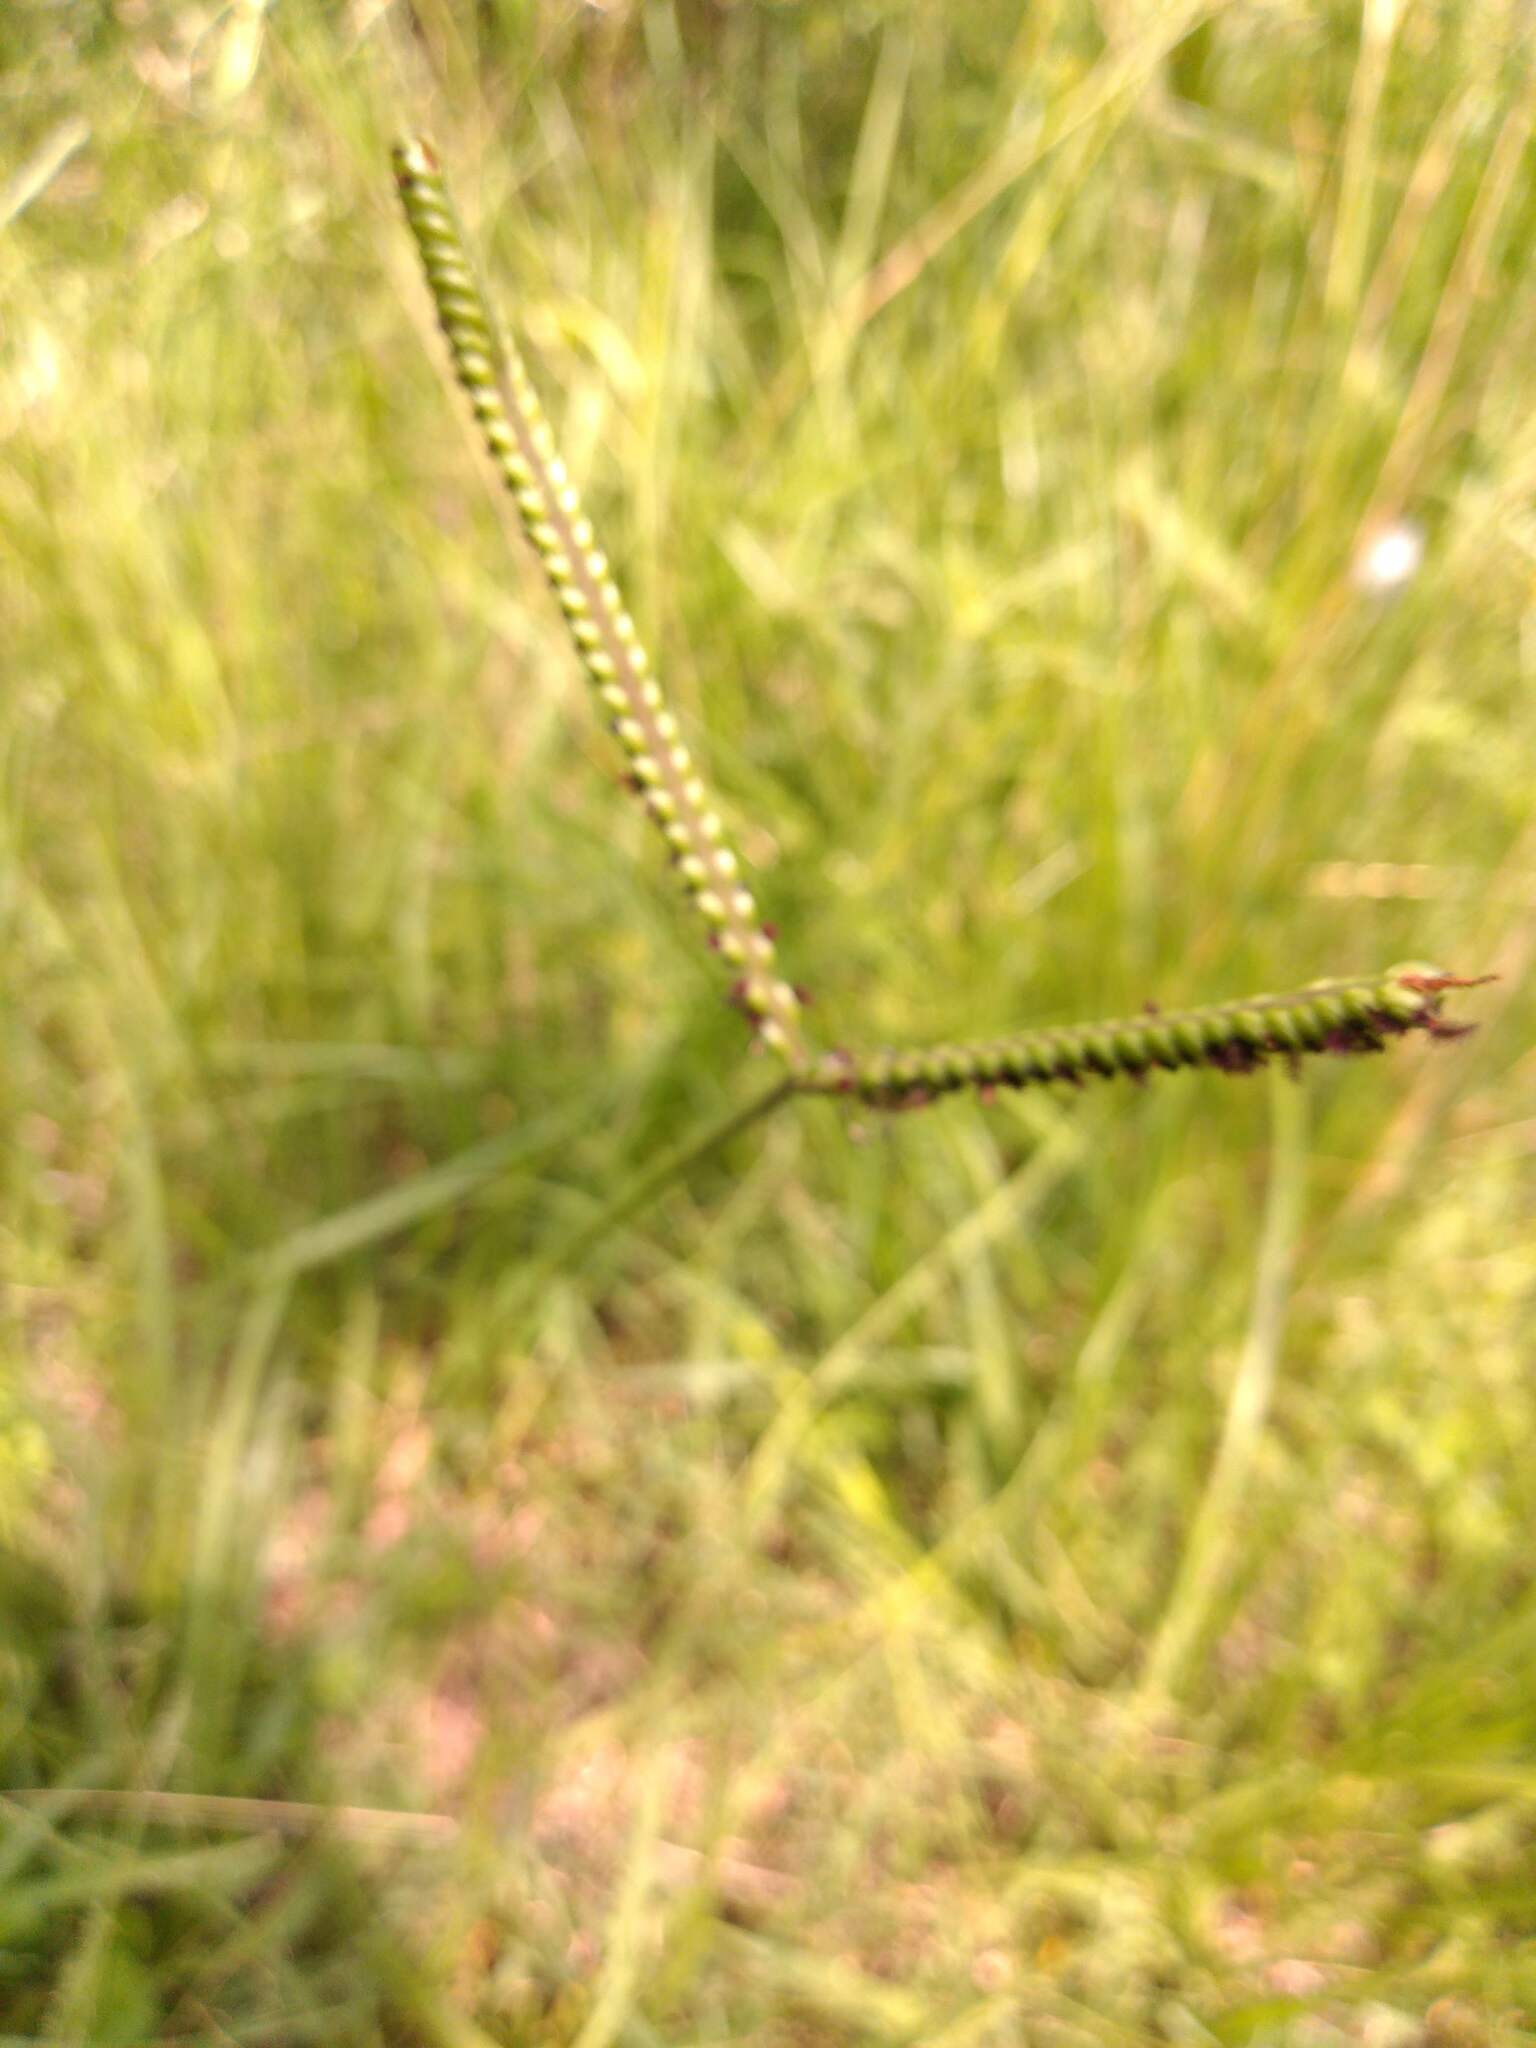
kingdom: Plantae
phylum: Tracheophyta
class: Liliopsida
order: Poales
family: Poaceae
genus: Paspalum
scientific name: Paspalum notatum
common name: Bahiagrass
